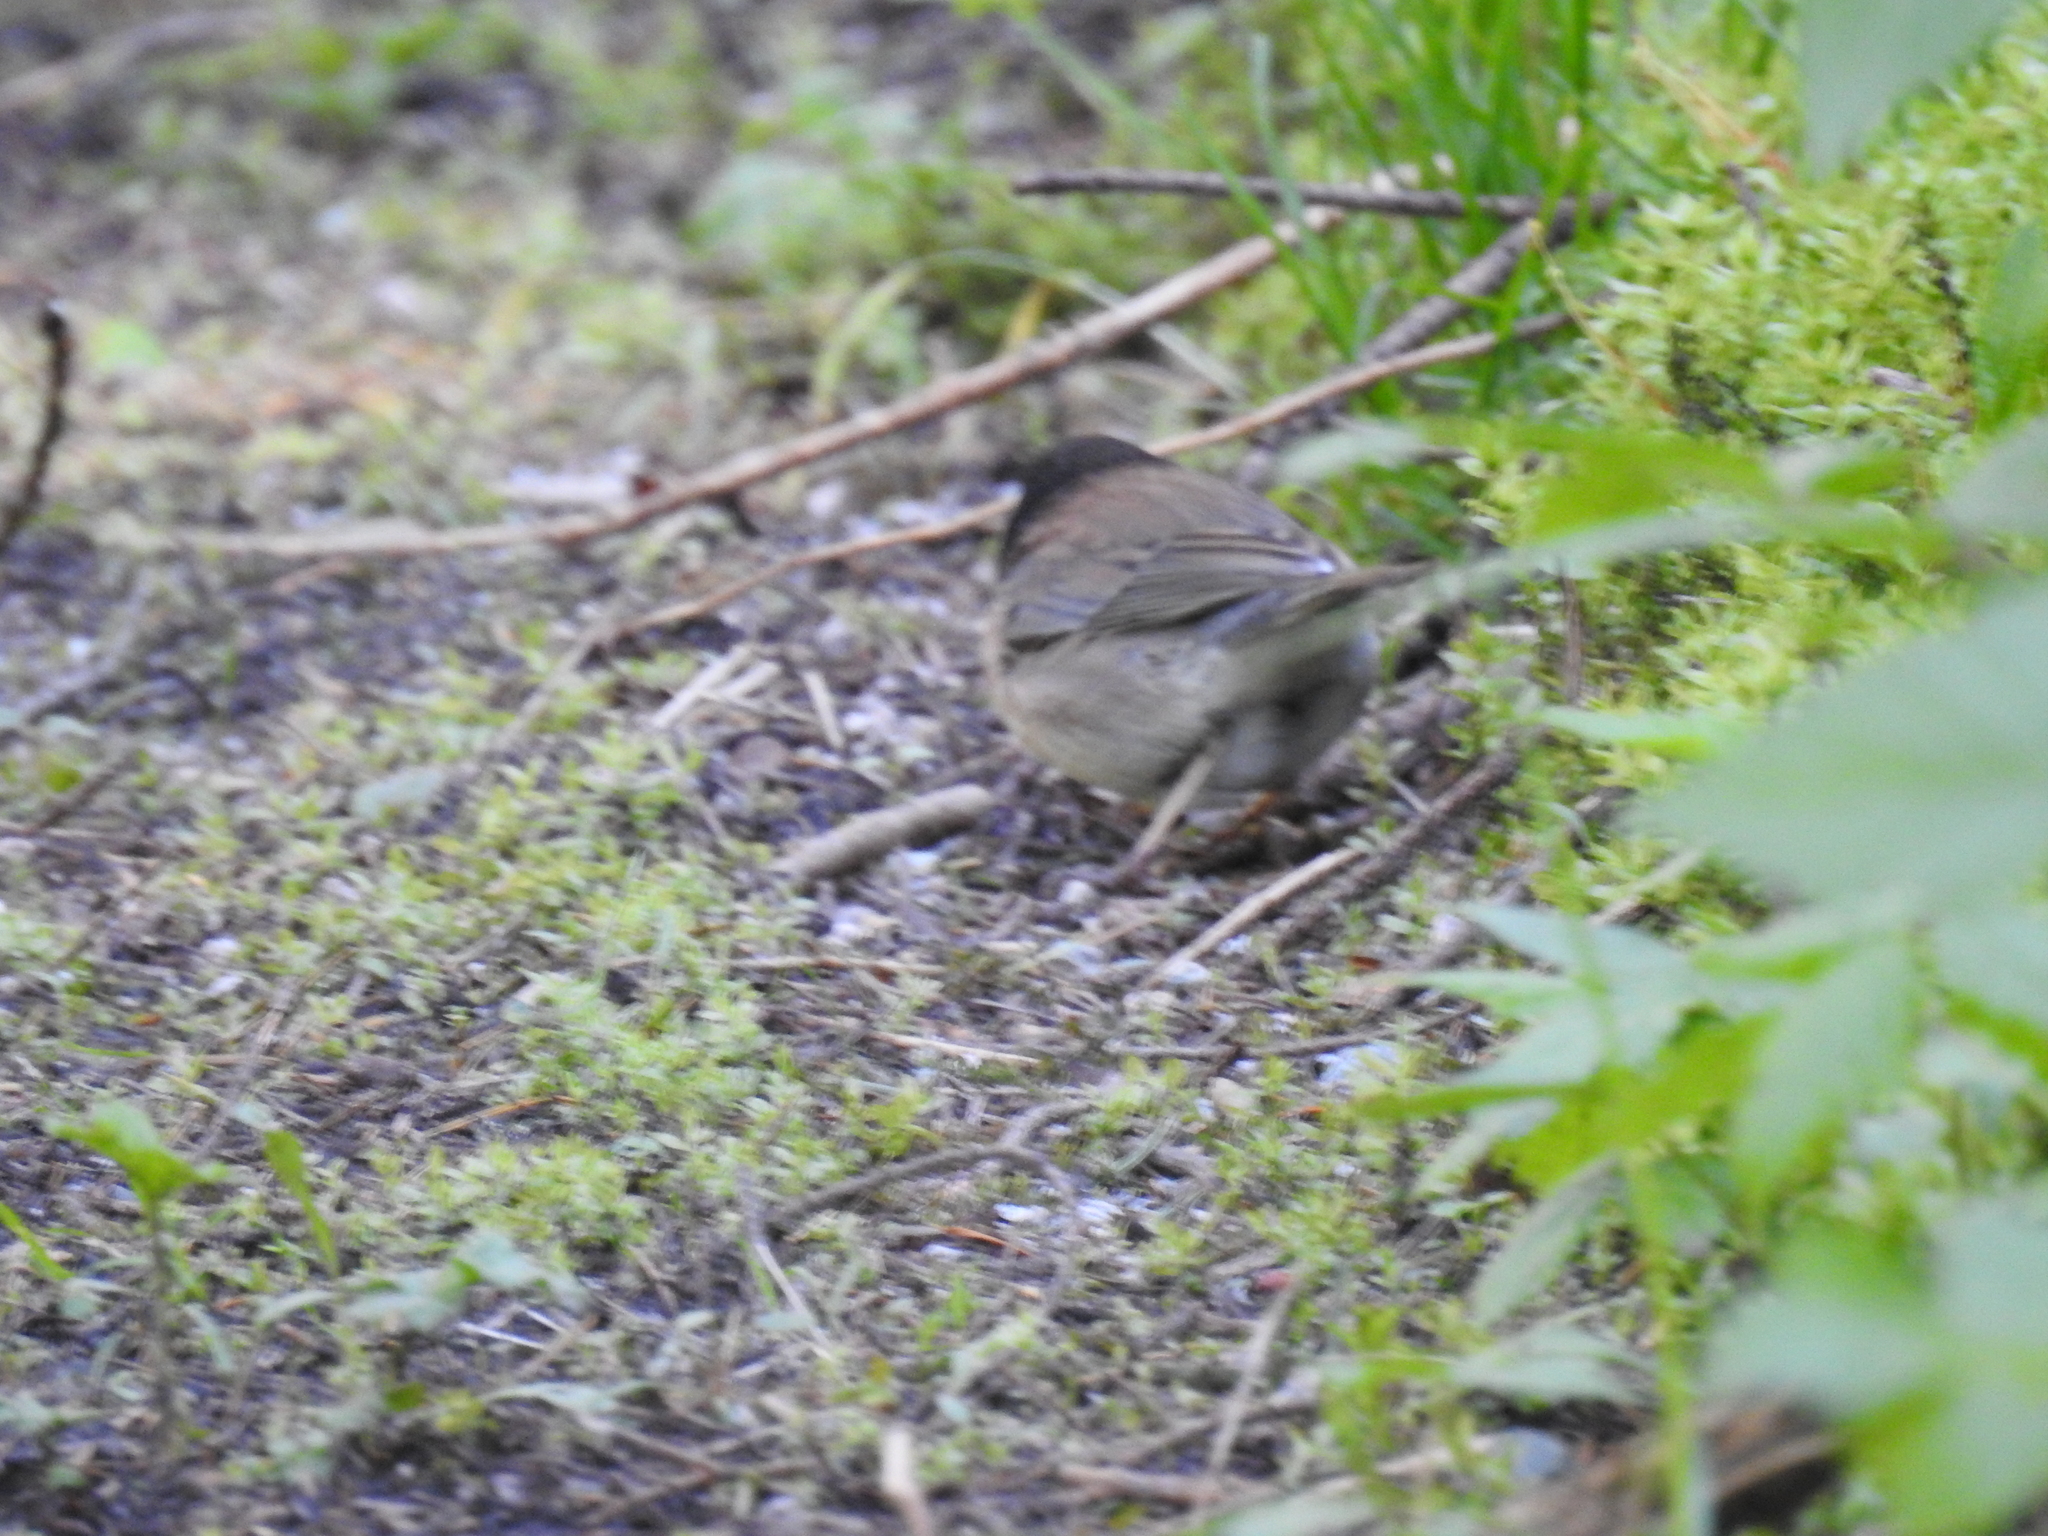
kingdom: Animalia
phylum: Chordata
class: Aves
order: Passeriformes
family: Passerellidae
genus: Junco
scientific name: Junco hyemalis
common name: Dark-eyed junco
